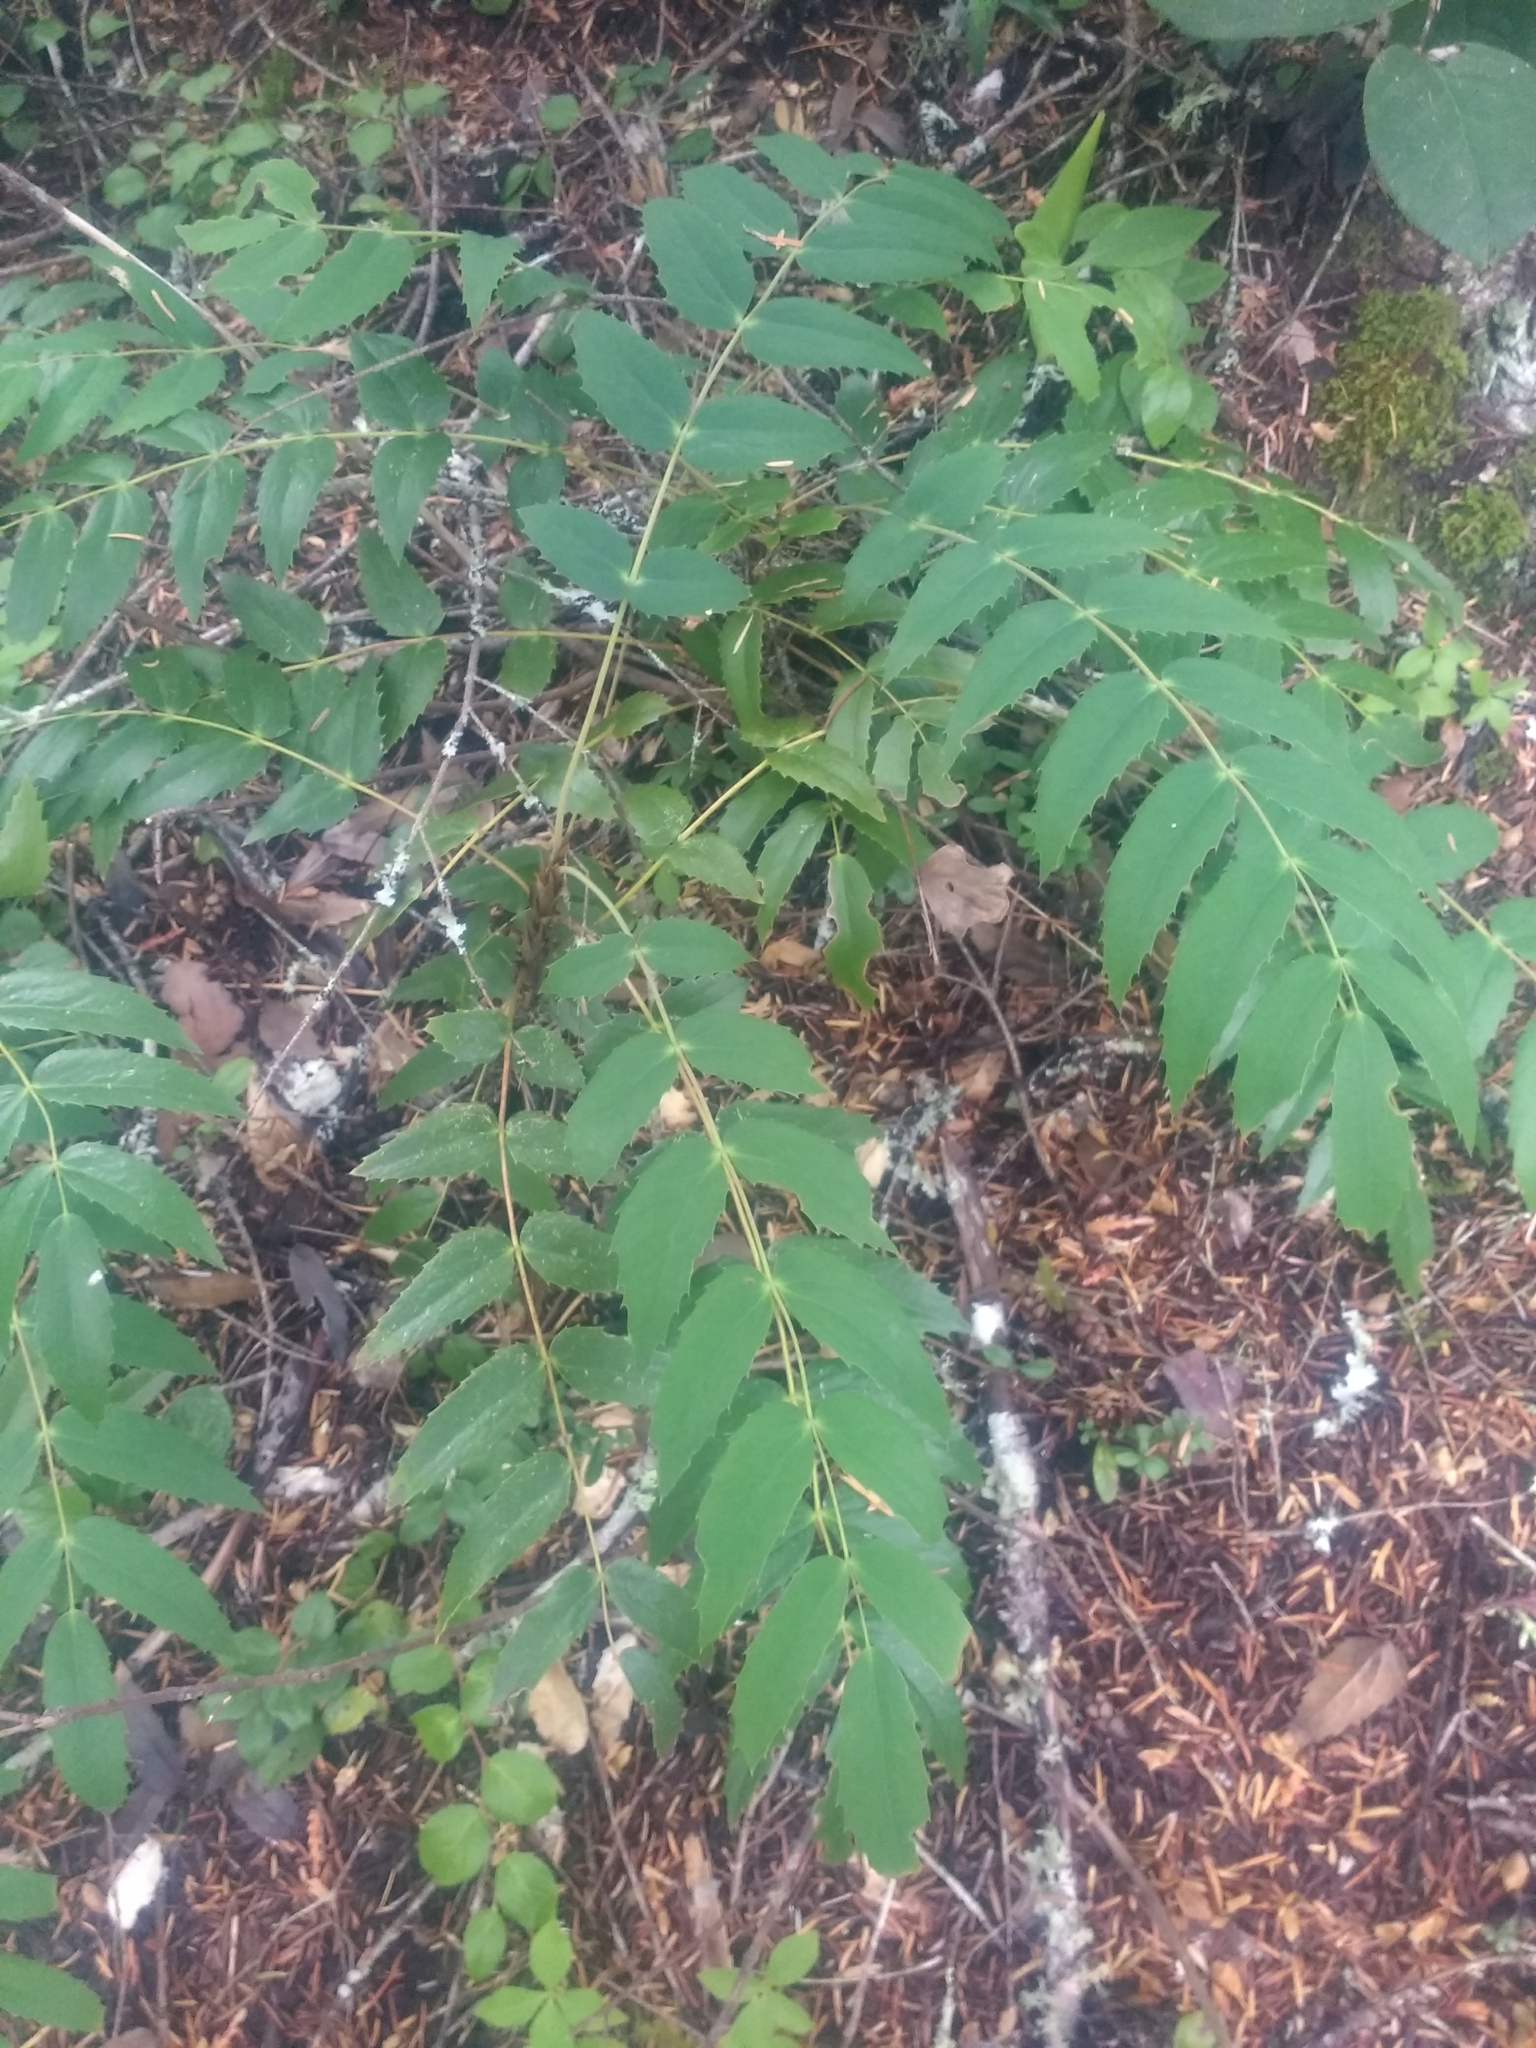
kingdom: Plantae
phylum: Tracheophyta
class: Magnoliopsida
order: Ranunculales
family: Berberidaceae
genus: Mahonia
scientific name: Mahonia nervosa
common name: Cascade oregon-grape
